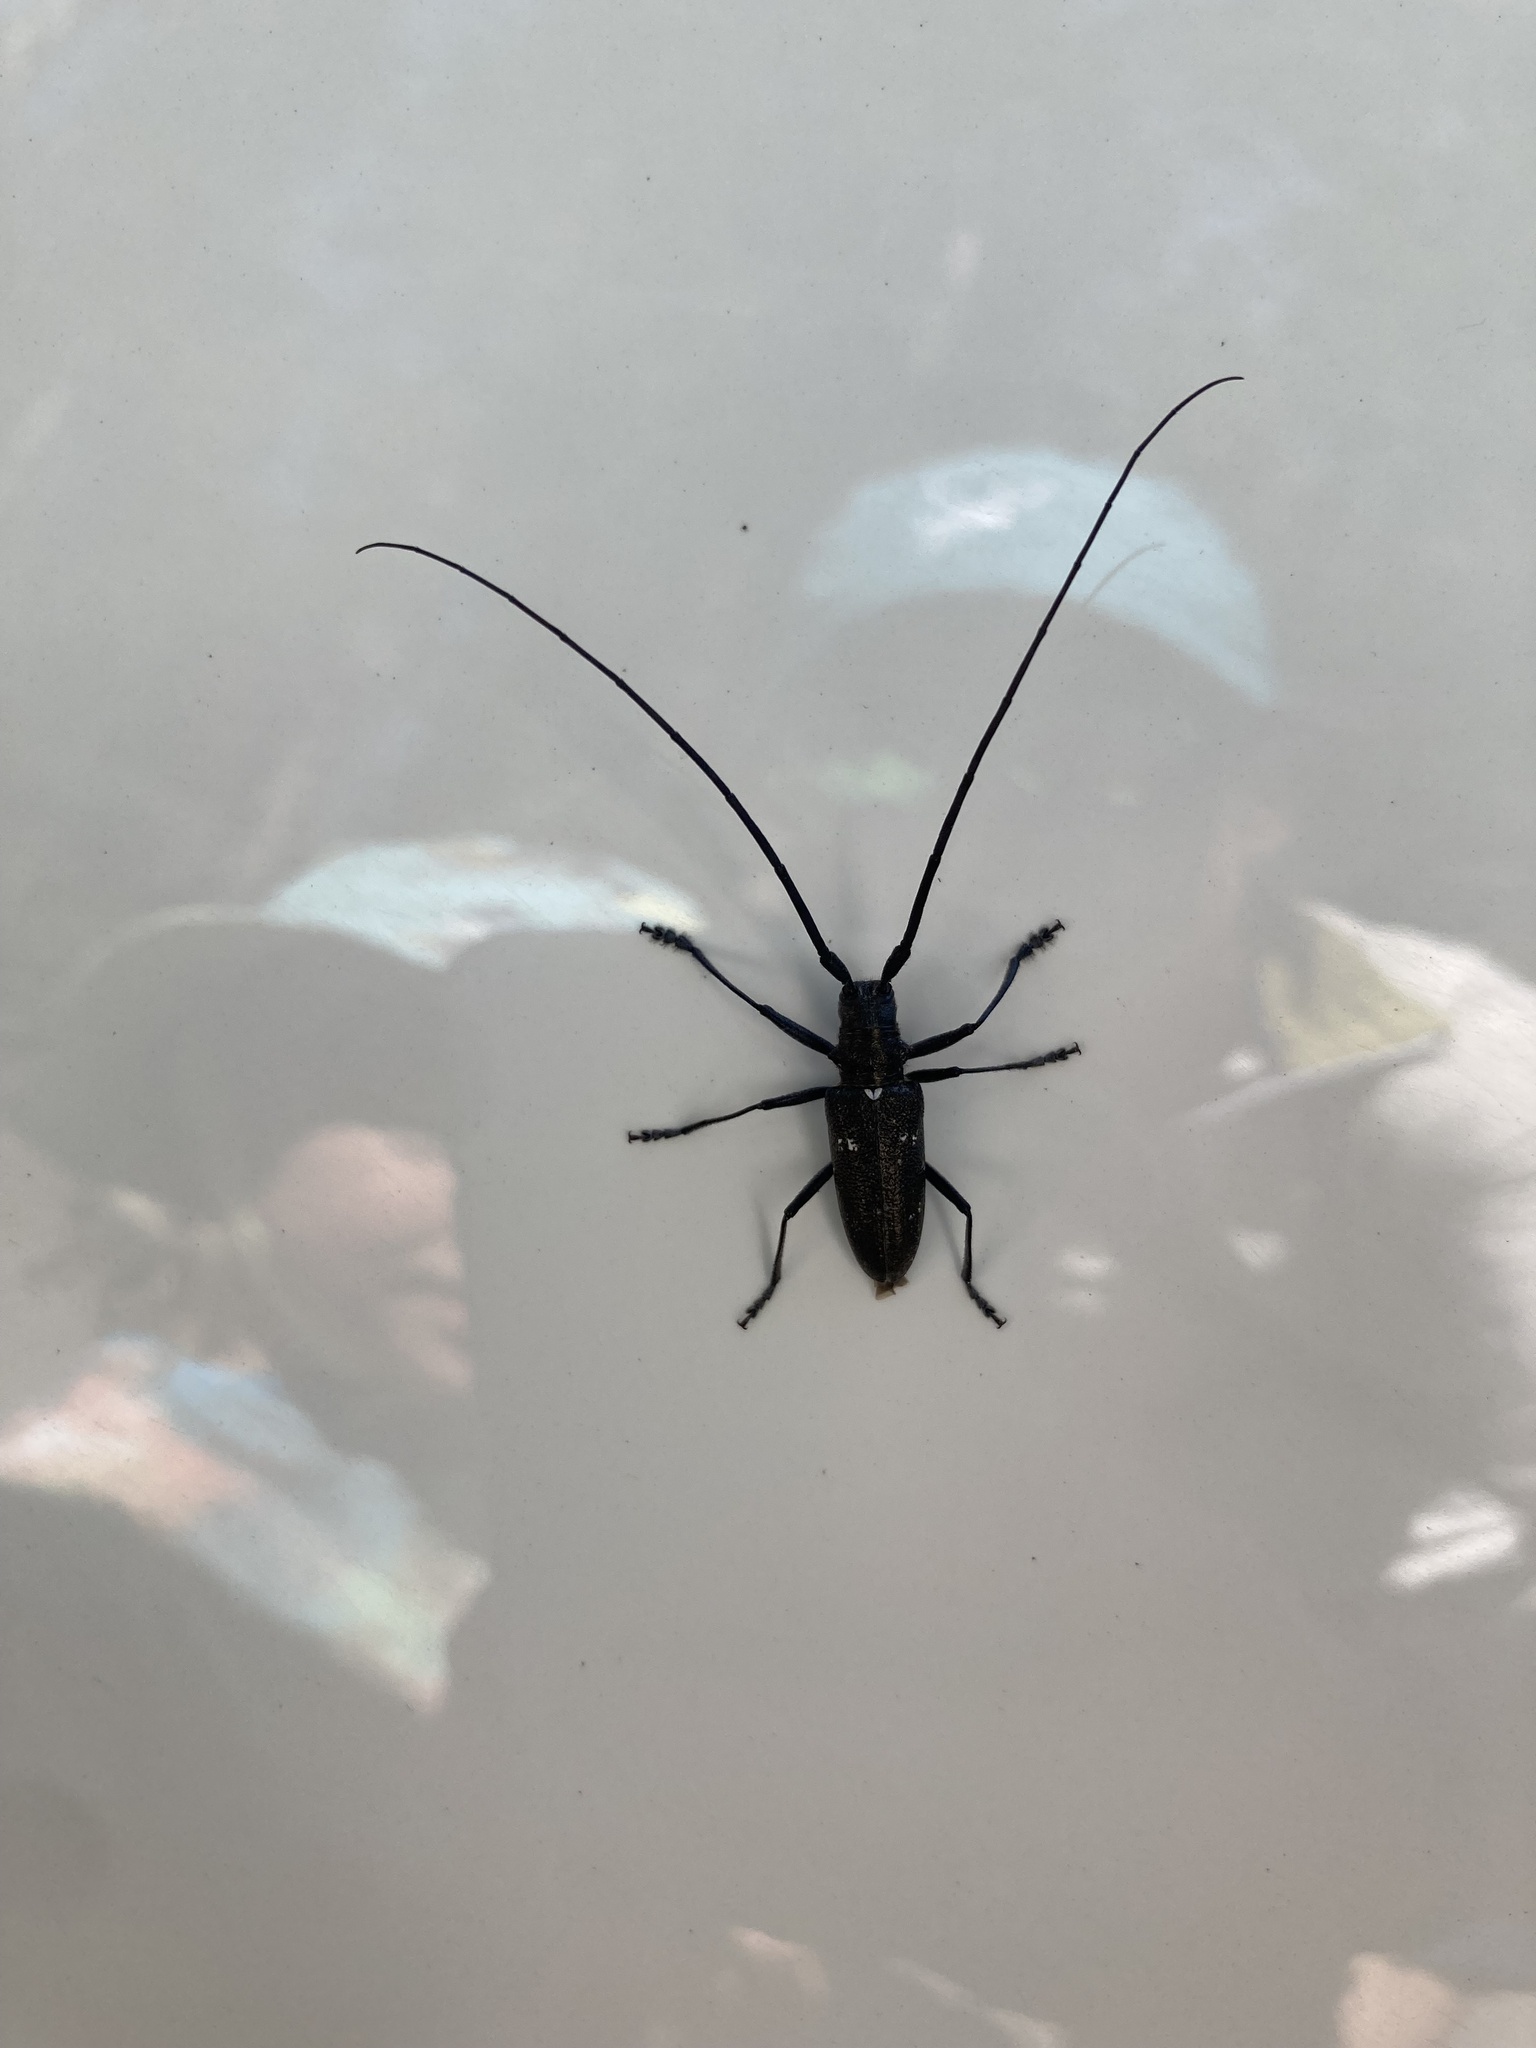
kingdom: Animalia
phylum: Arthropoda
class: Insecta
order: Coleoptera
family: Cerambycidae
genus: Monochamus
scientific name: Monochamus scutellatus
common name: White-spotted sawyer beetle
